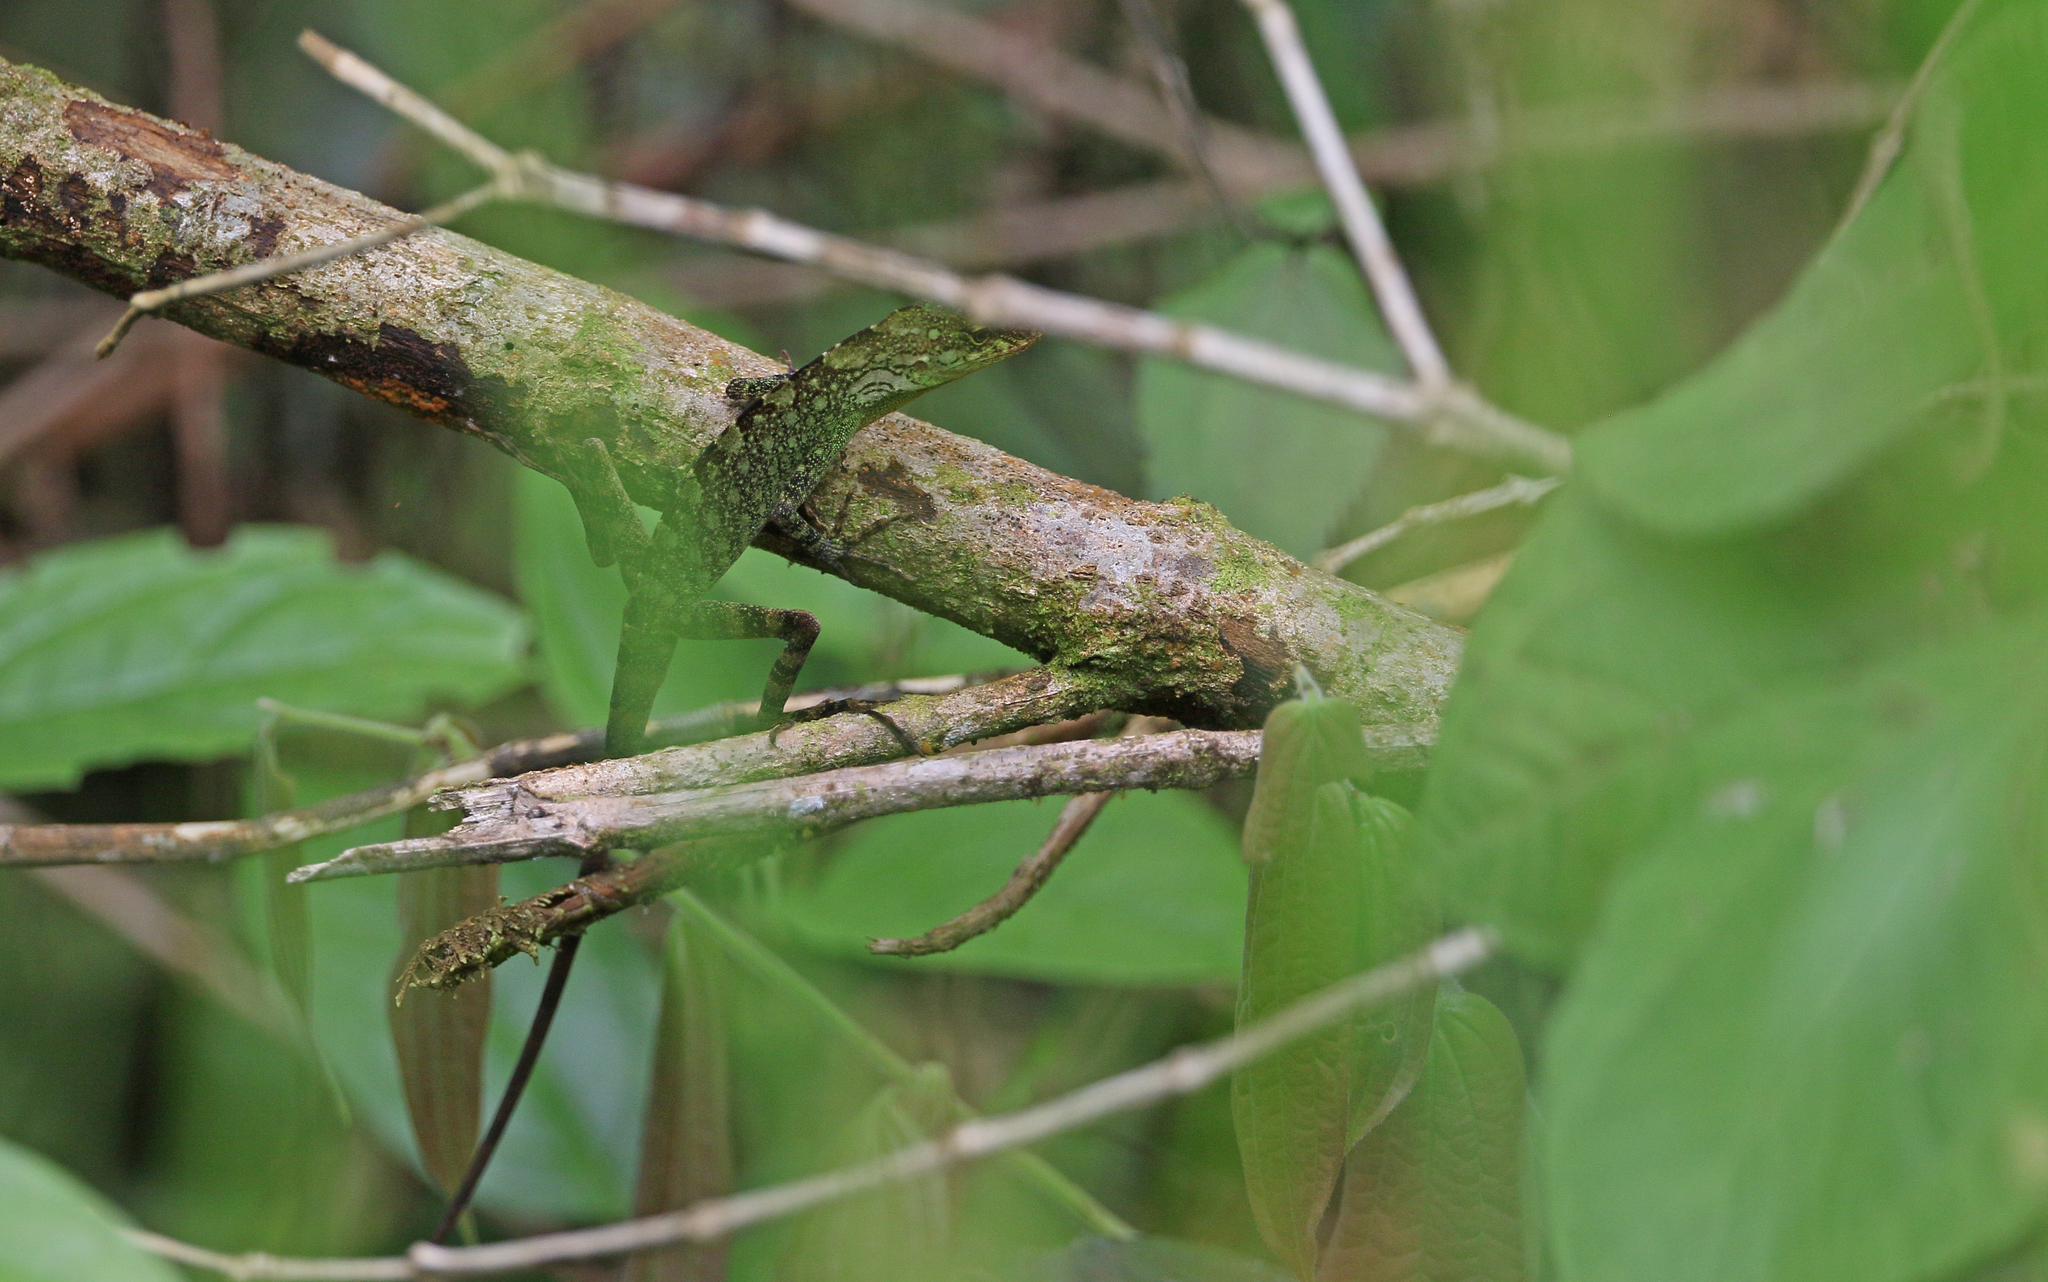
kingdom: Animalia
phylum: Chordata
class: Squamata
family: Dactyloidae
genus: Anolis
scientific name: Anolis fitchi
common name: Fitch's anole
